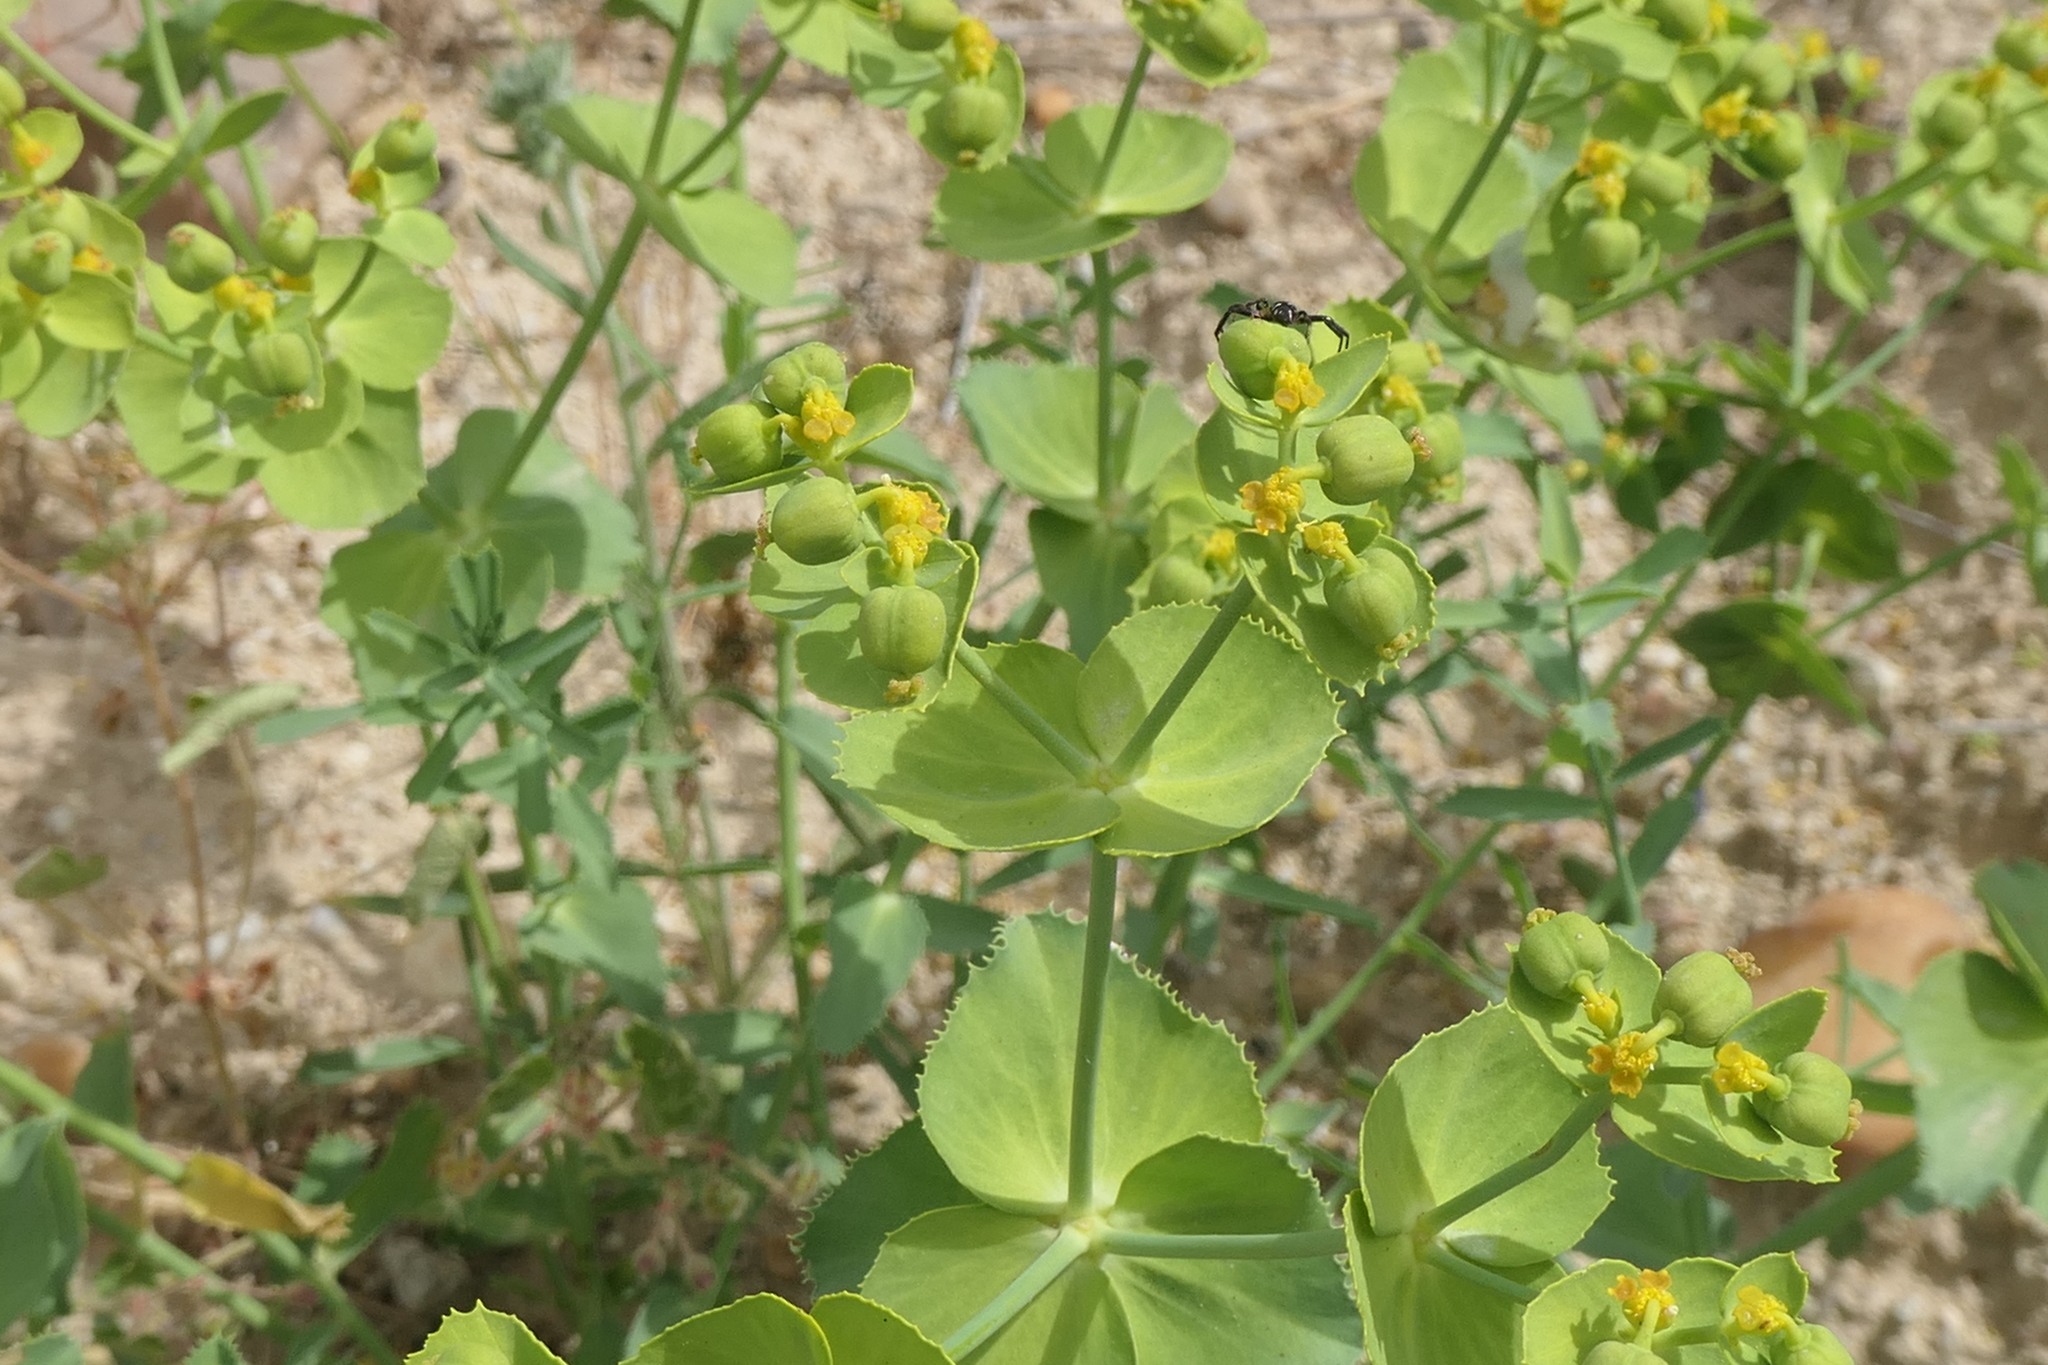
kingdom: Plantae
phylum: Tracheophyta
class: Magnoliopsida
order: Malpighiales
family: Euphorbiaceae
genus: Euphorbia
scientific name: Euphorbia serrata
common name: Serrate spurge
